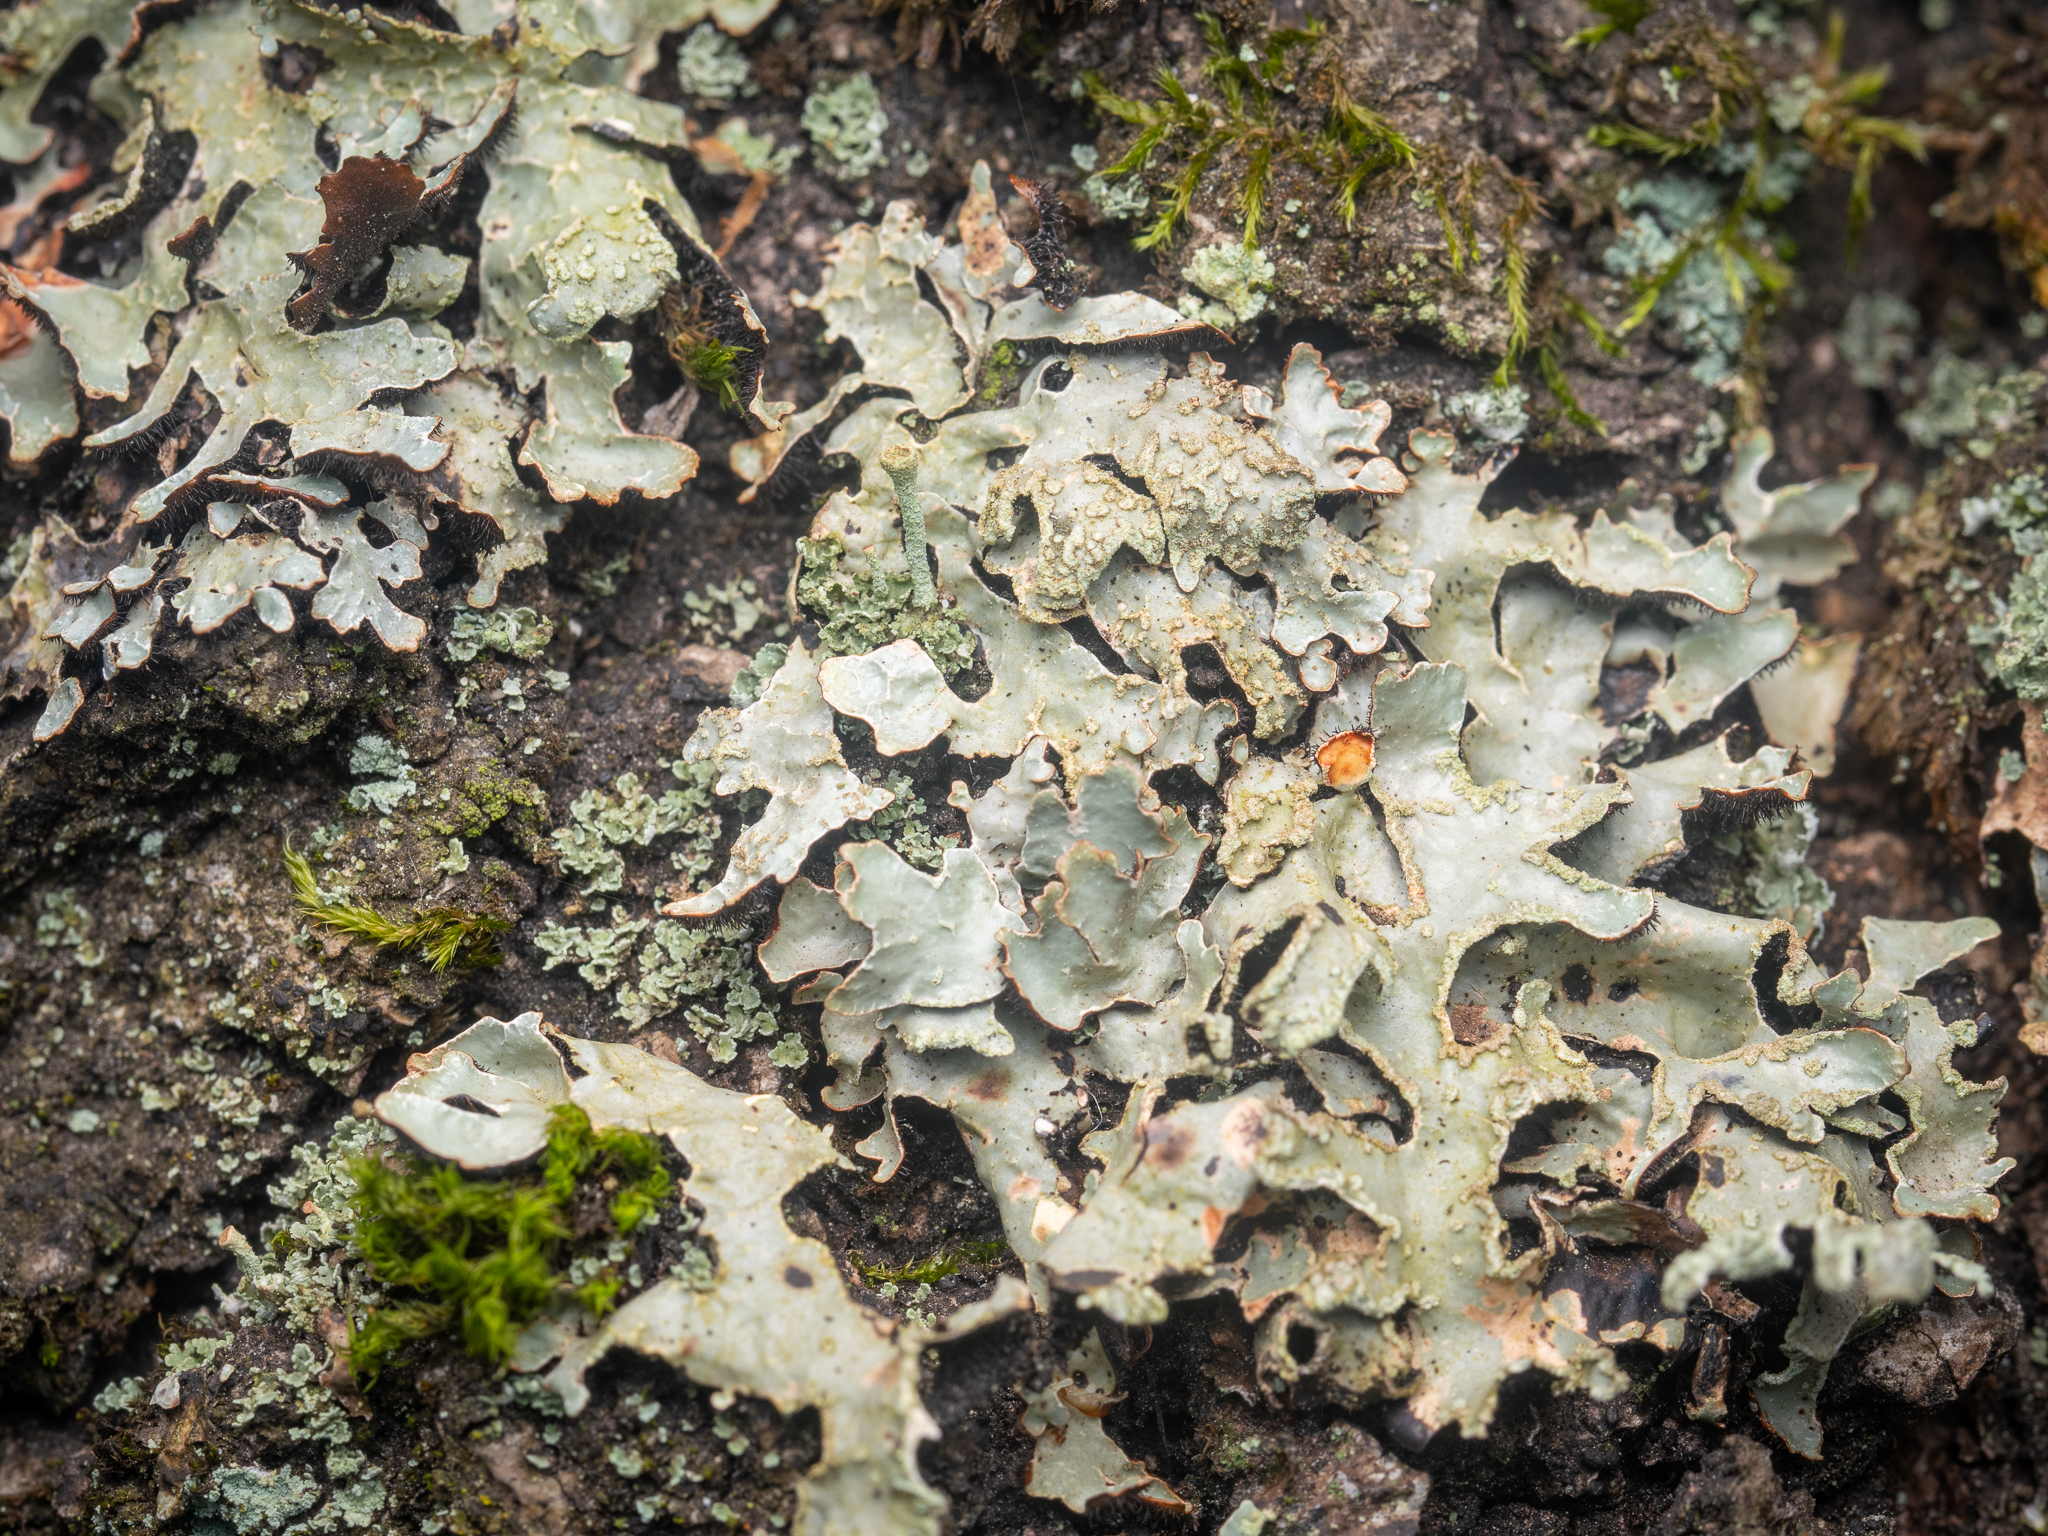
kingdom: Fungi
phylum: Ascomycota
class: Lecanoromycetes
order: Lecanorales
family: Parmeliaceae
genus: Parmelia
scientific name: Parmelia sulcata
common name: Netted shield lichen
